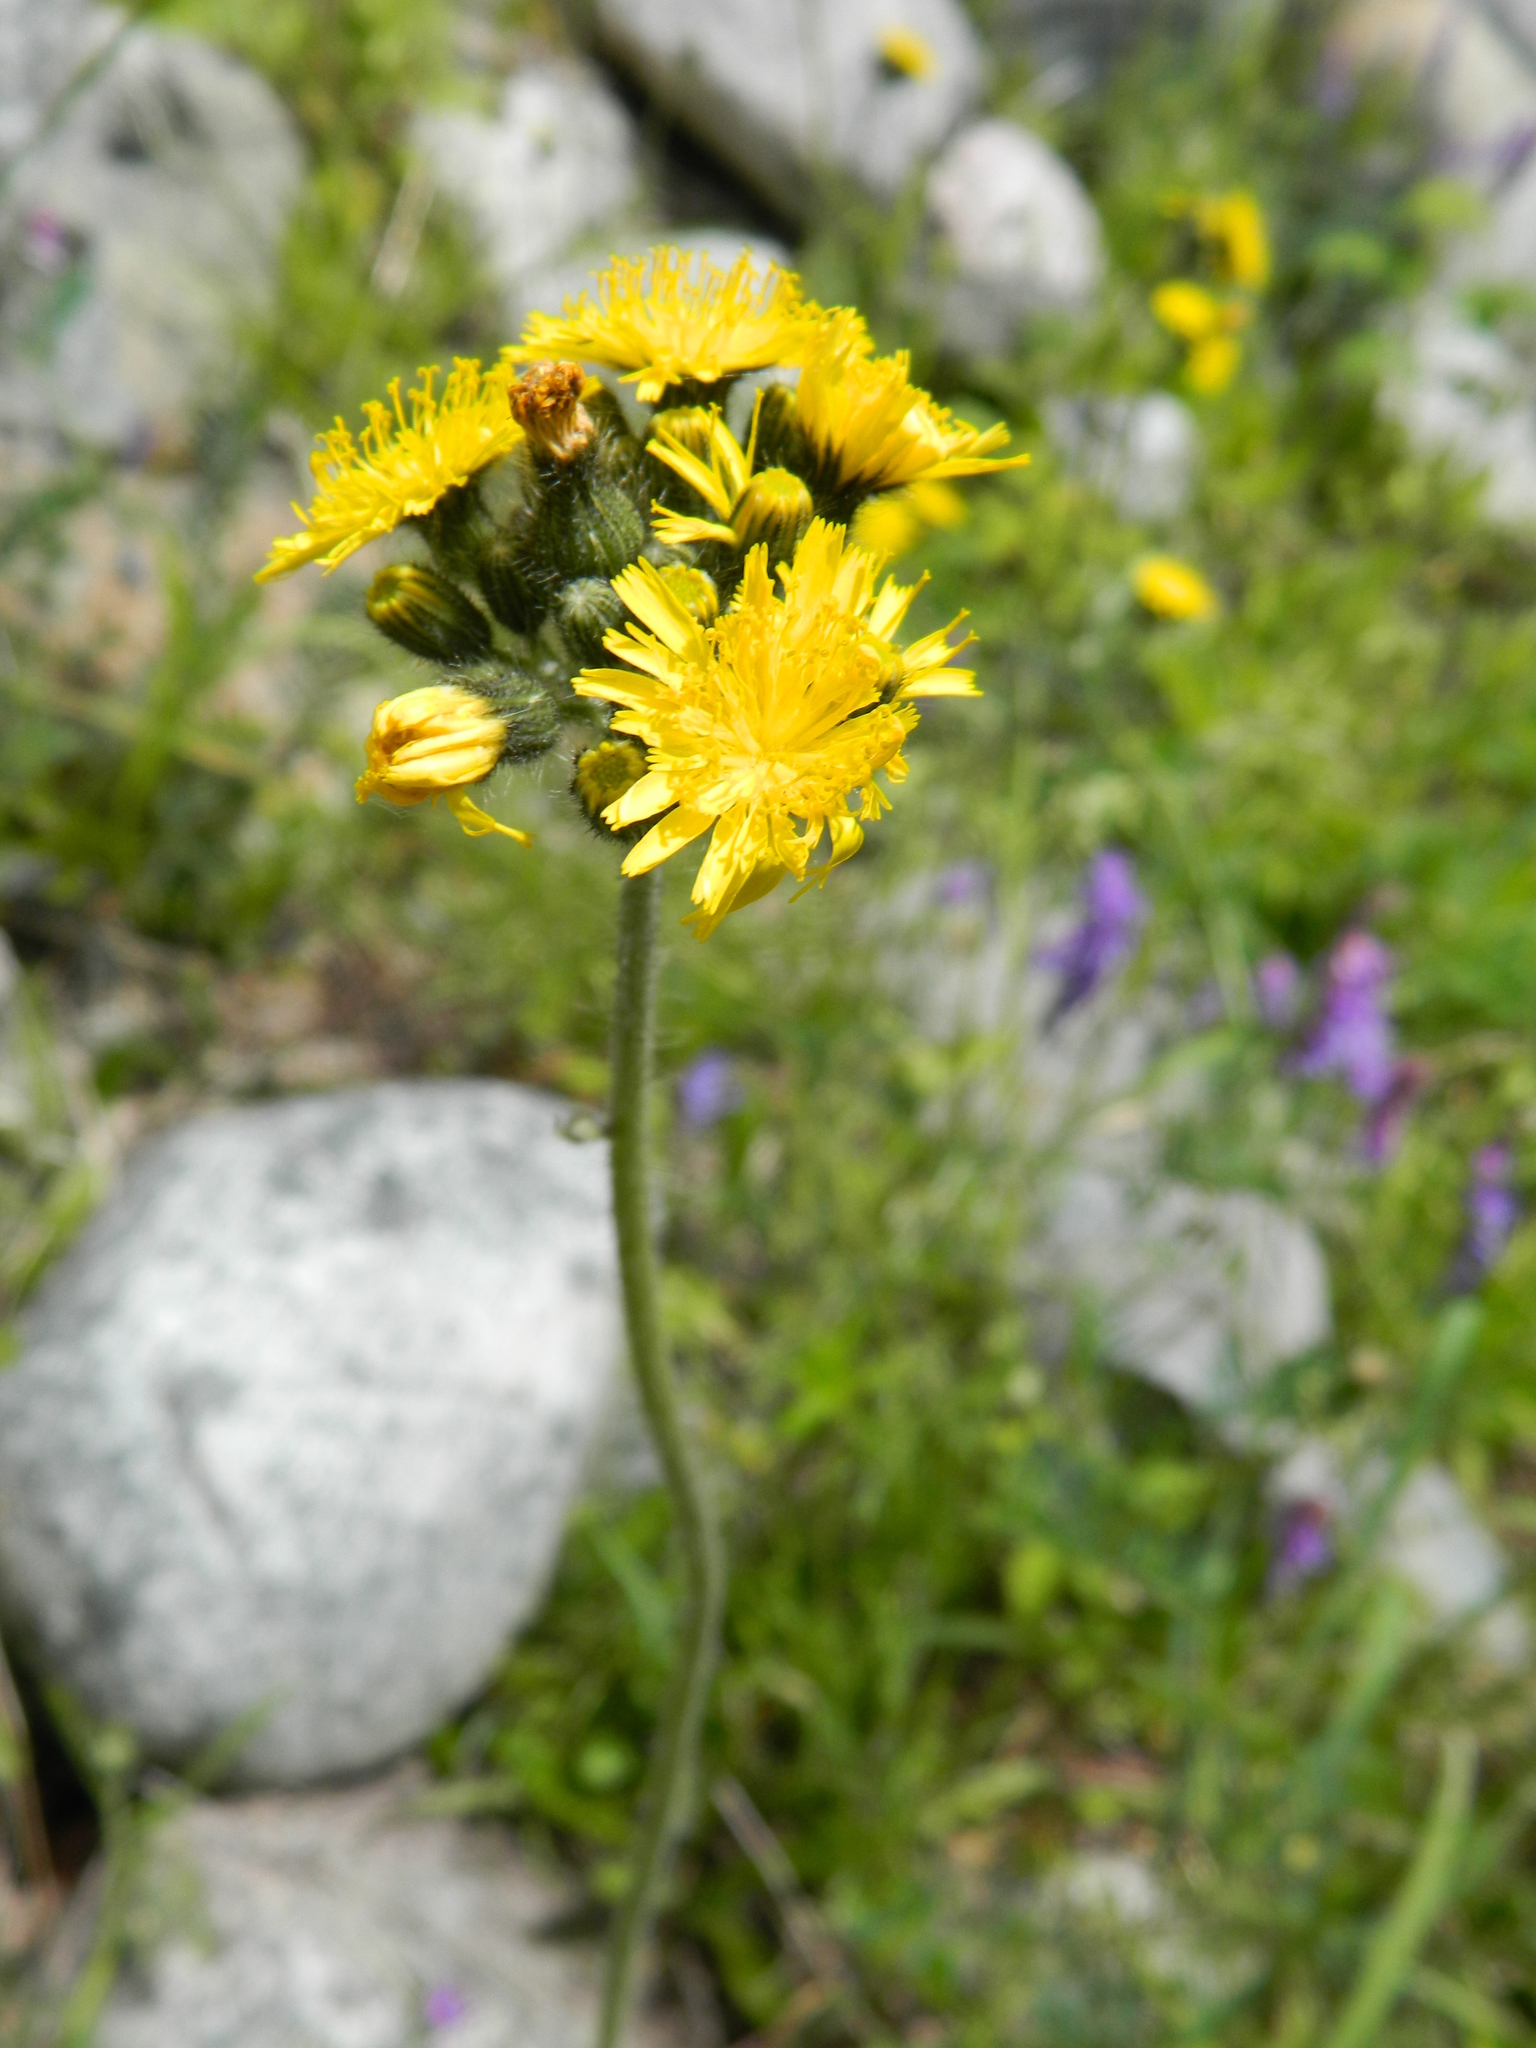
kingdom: Plantae
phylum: Tracheophyta
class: Magnoliopsida
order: Asterales
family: Asteraceae
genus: Pilosella
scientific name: Pilosella caespitosa
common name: Yellow fox-and-cubs
